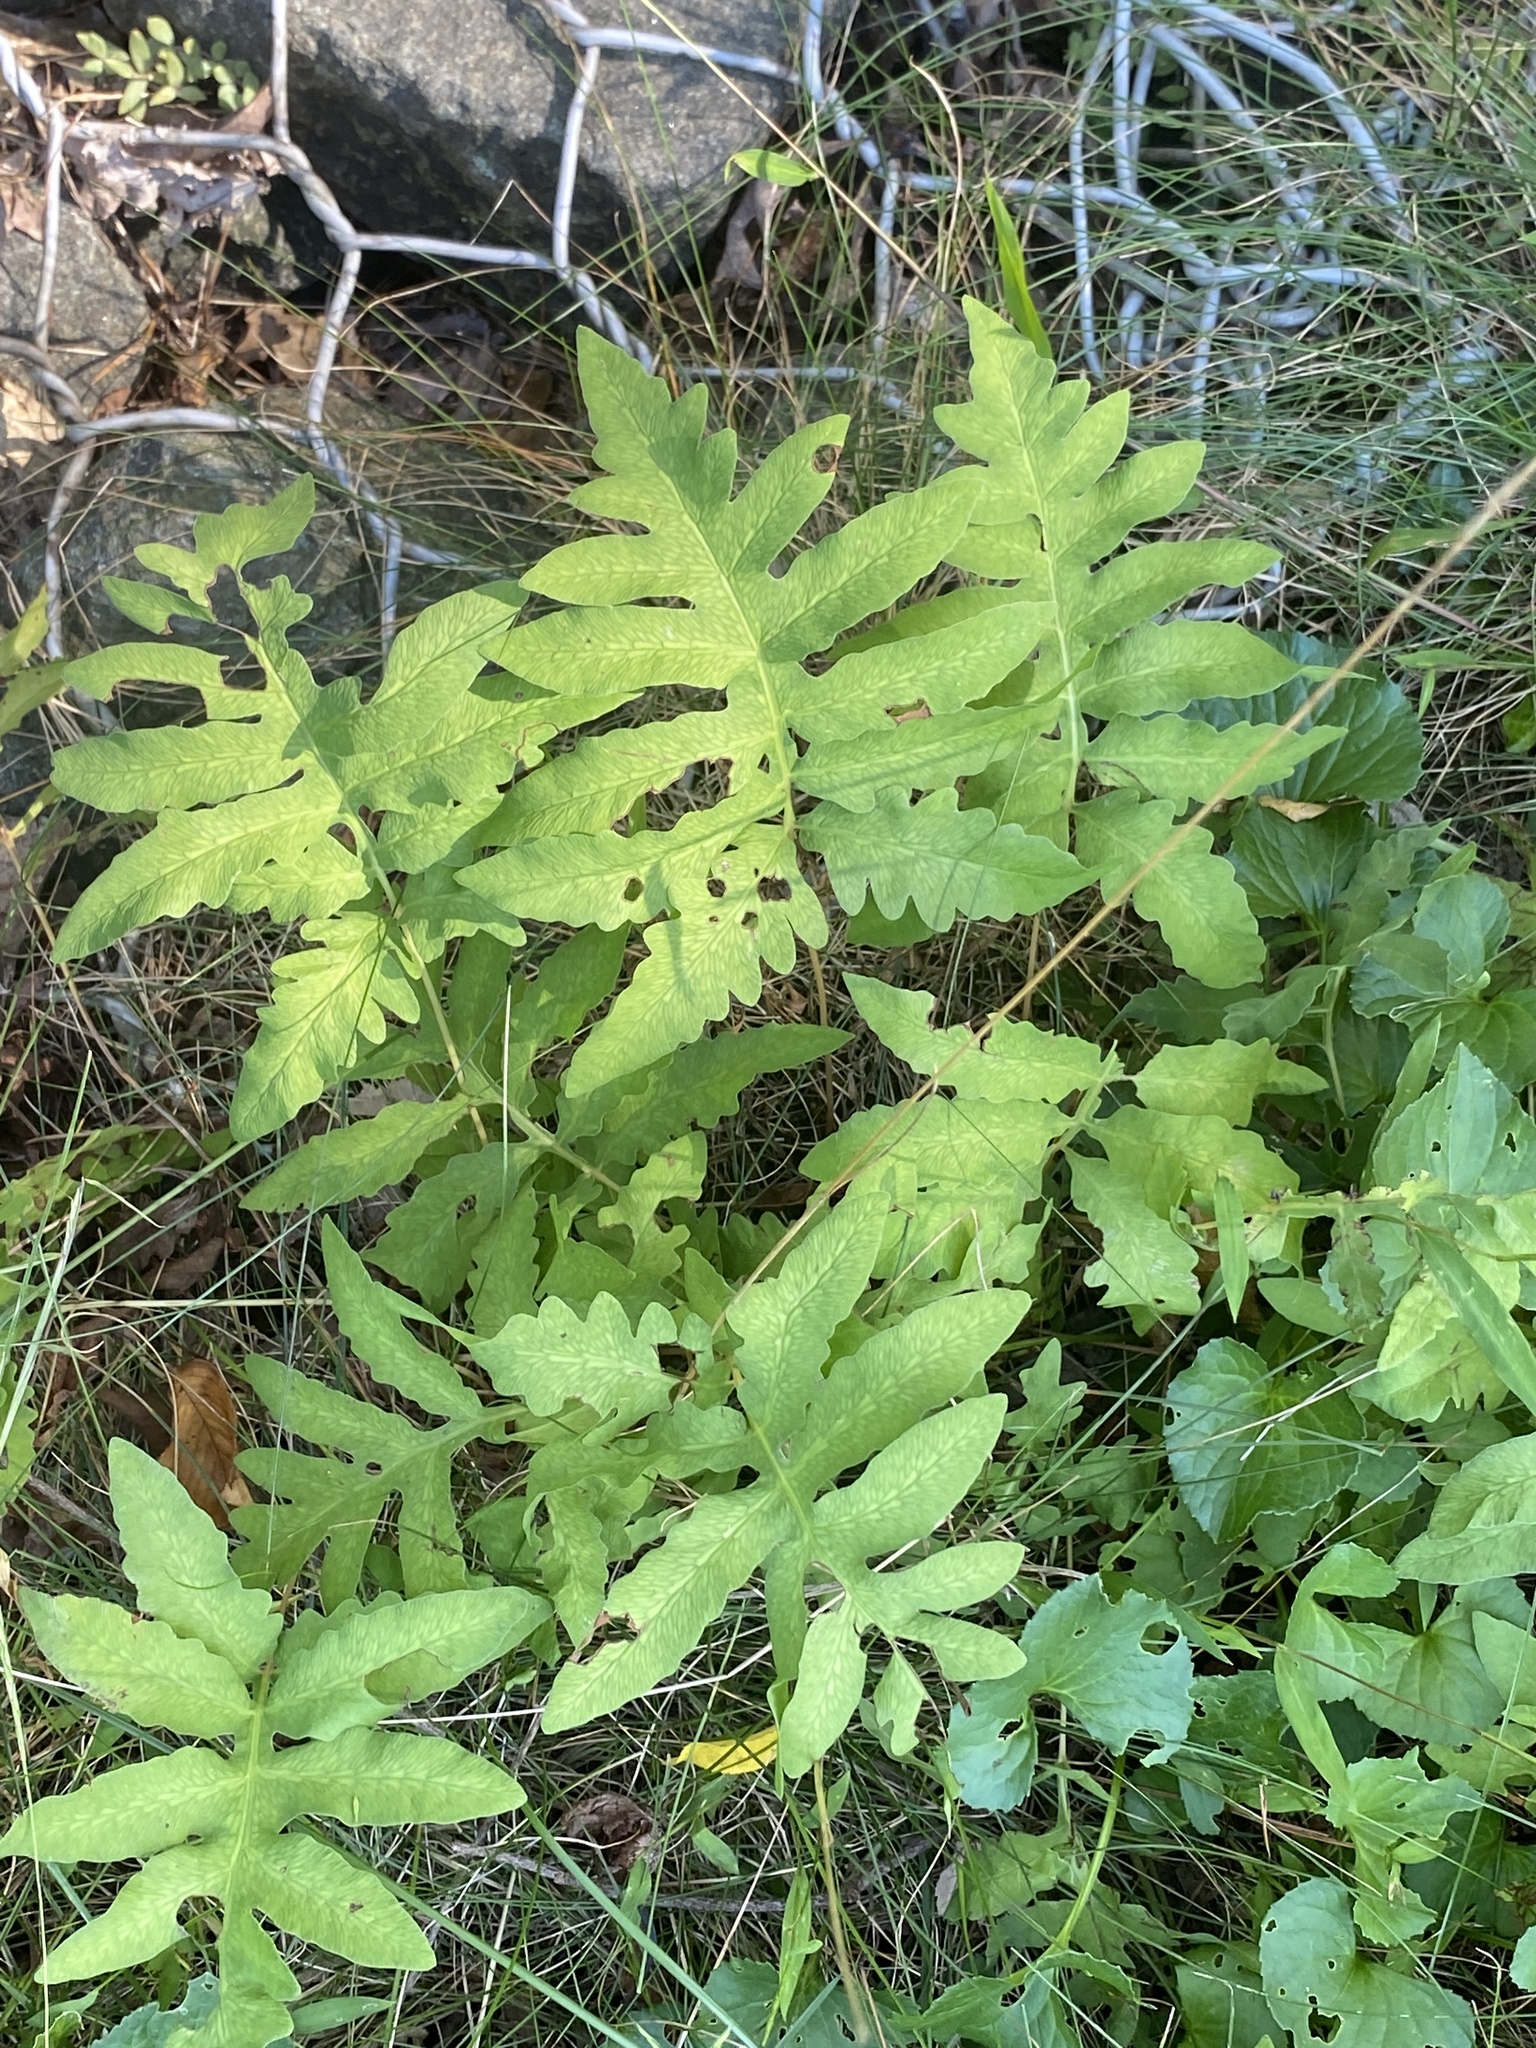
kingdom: Plantae
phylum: Tracheophyta
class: Polypodiopsida
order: Polypodiales
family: Onocleaceae
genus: Onoclea
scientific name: Onoclea sensibilis
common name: Sensitive fern
